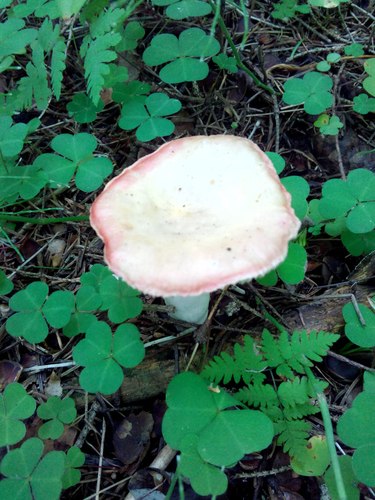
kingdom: Fungi
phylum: Basidiomycota
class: Agaricomycetes
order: Russulales
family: Russulaceae
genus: Russula
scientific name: Russula
